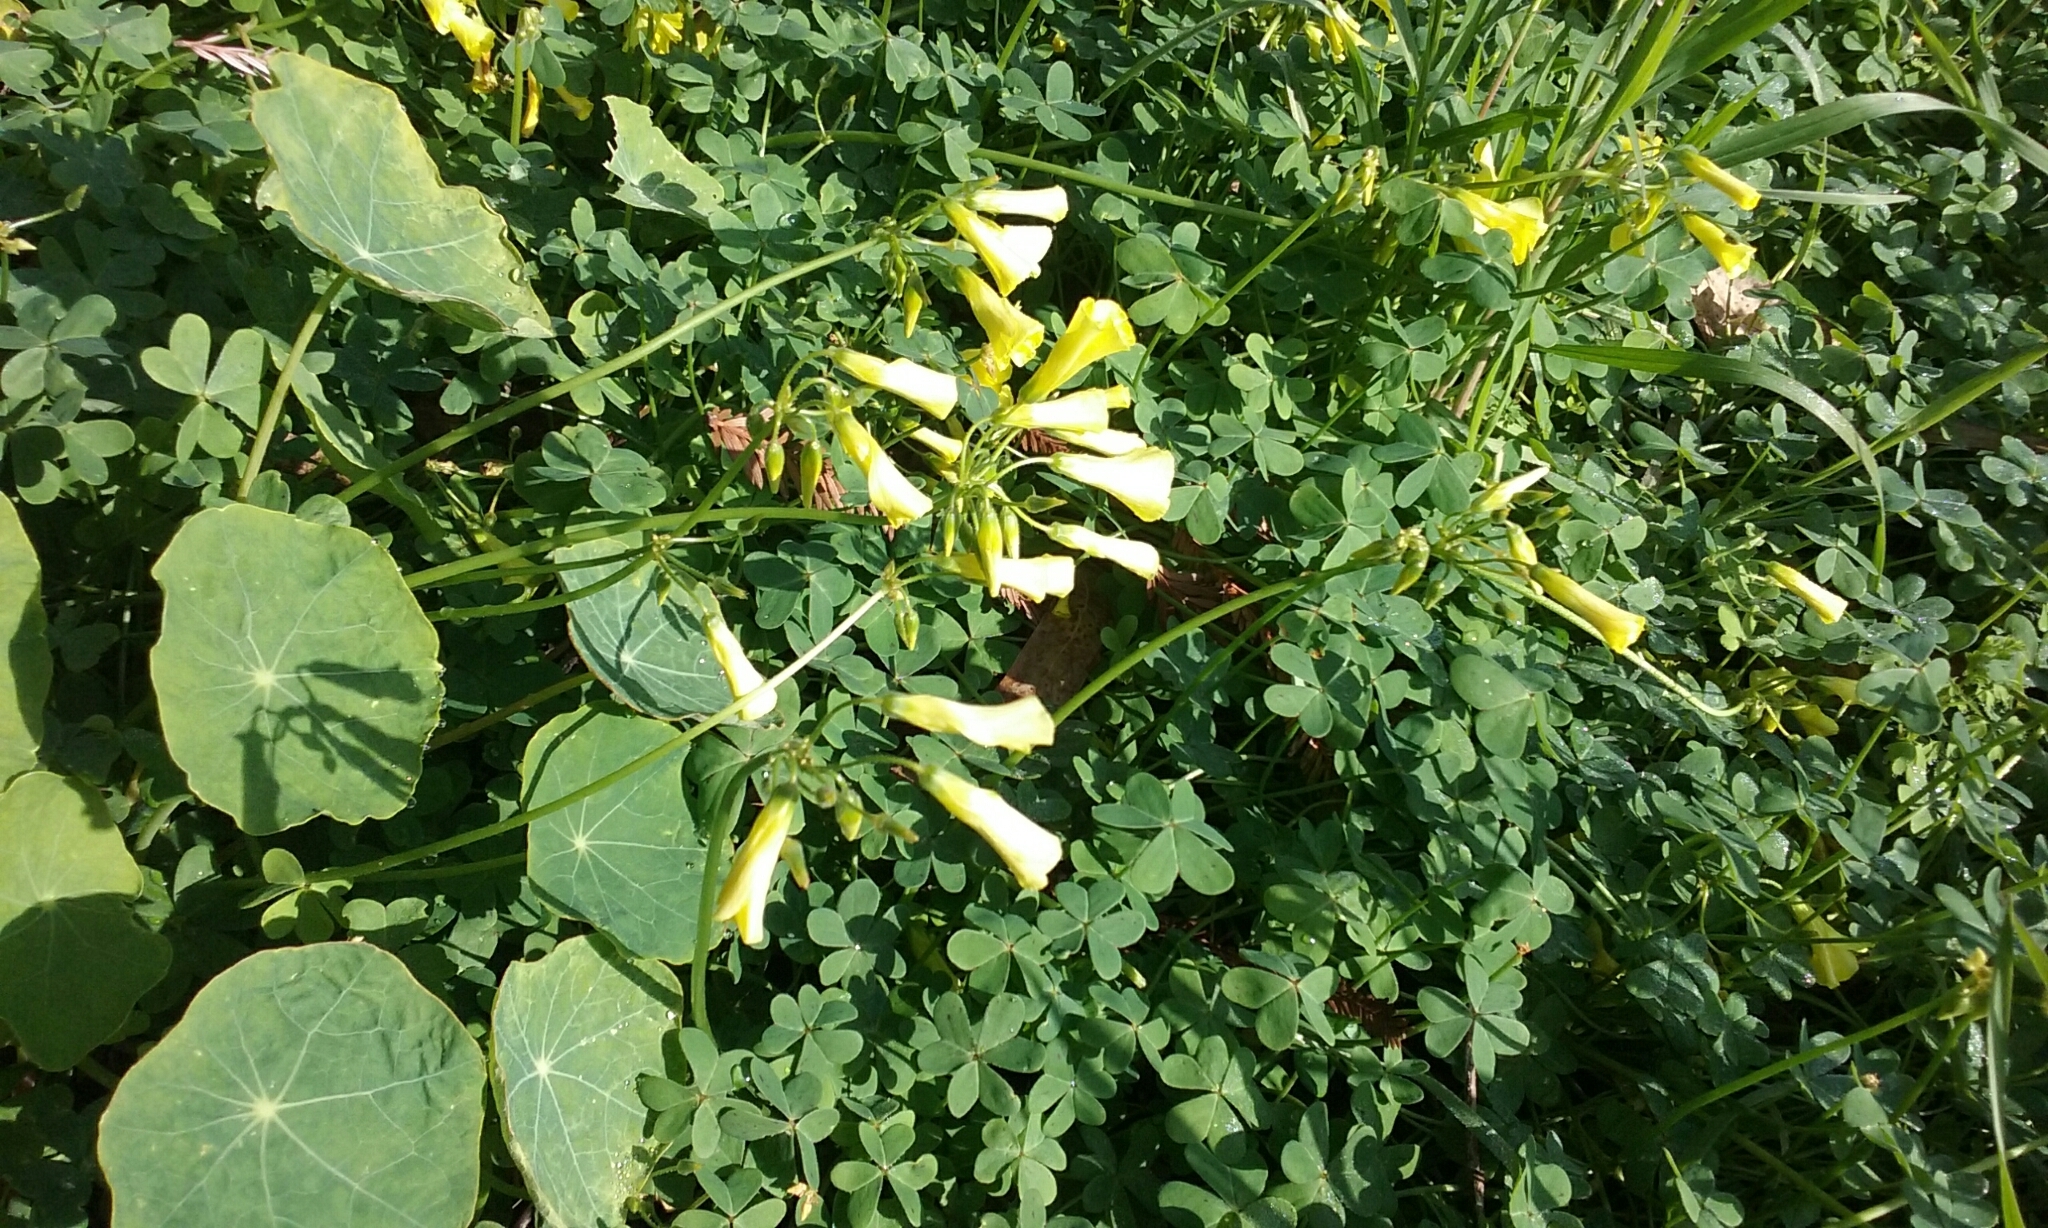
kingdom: Plantae
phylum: Tracheophyta
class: Magnoliopsida
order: Oxalidales
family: Oxalidaceae
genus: Oxalis
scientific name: Oxalis pes-caprae
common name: Bermuda-buttercup
